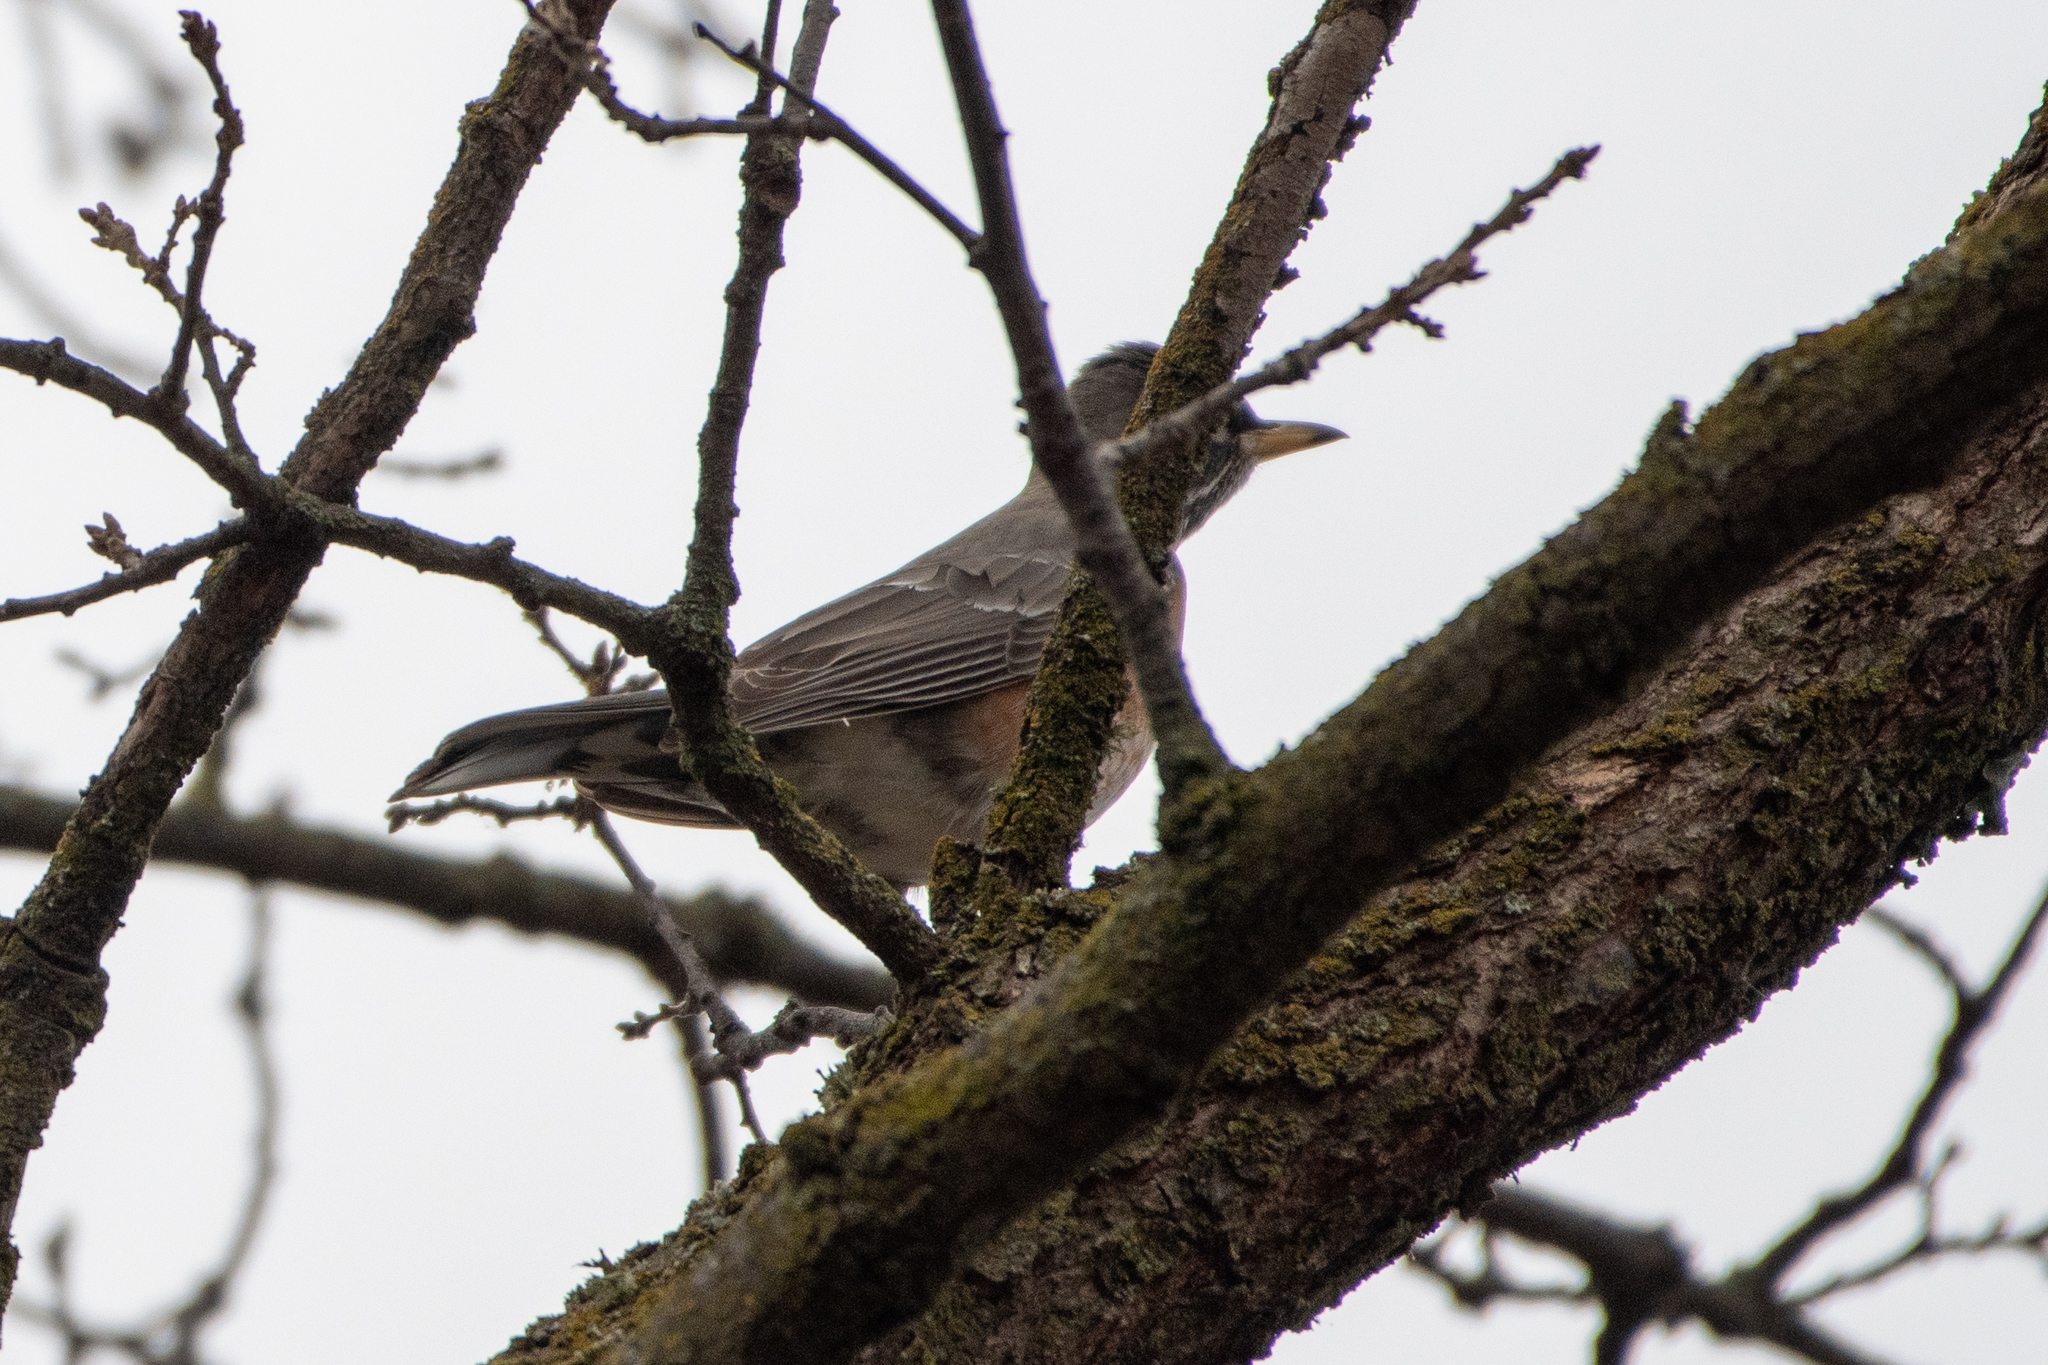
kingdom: Animalia
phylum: Chordata
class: Aves
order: Passeriformes
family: Turdidae
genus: Turdus
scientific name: Turdus migratorius
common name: American robin
